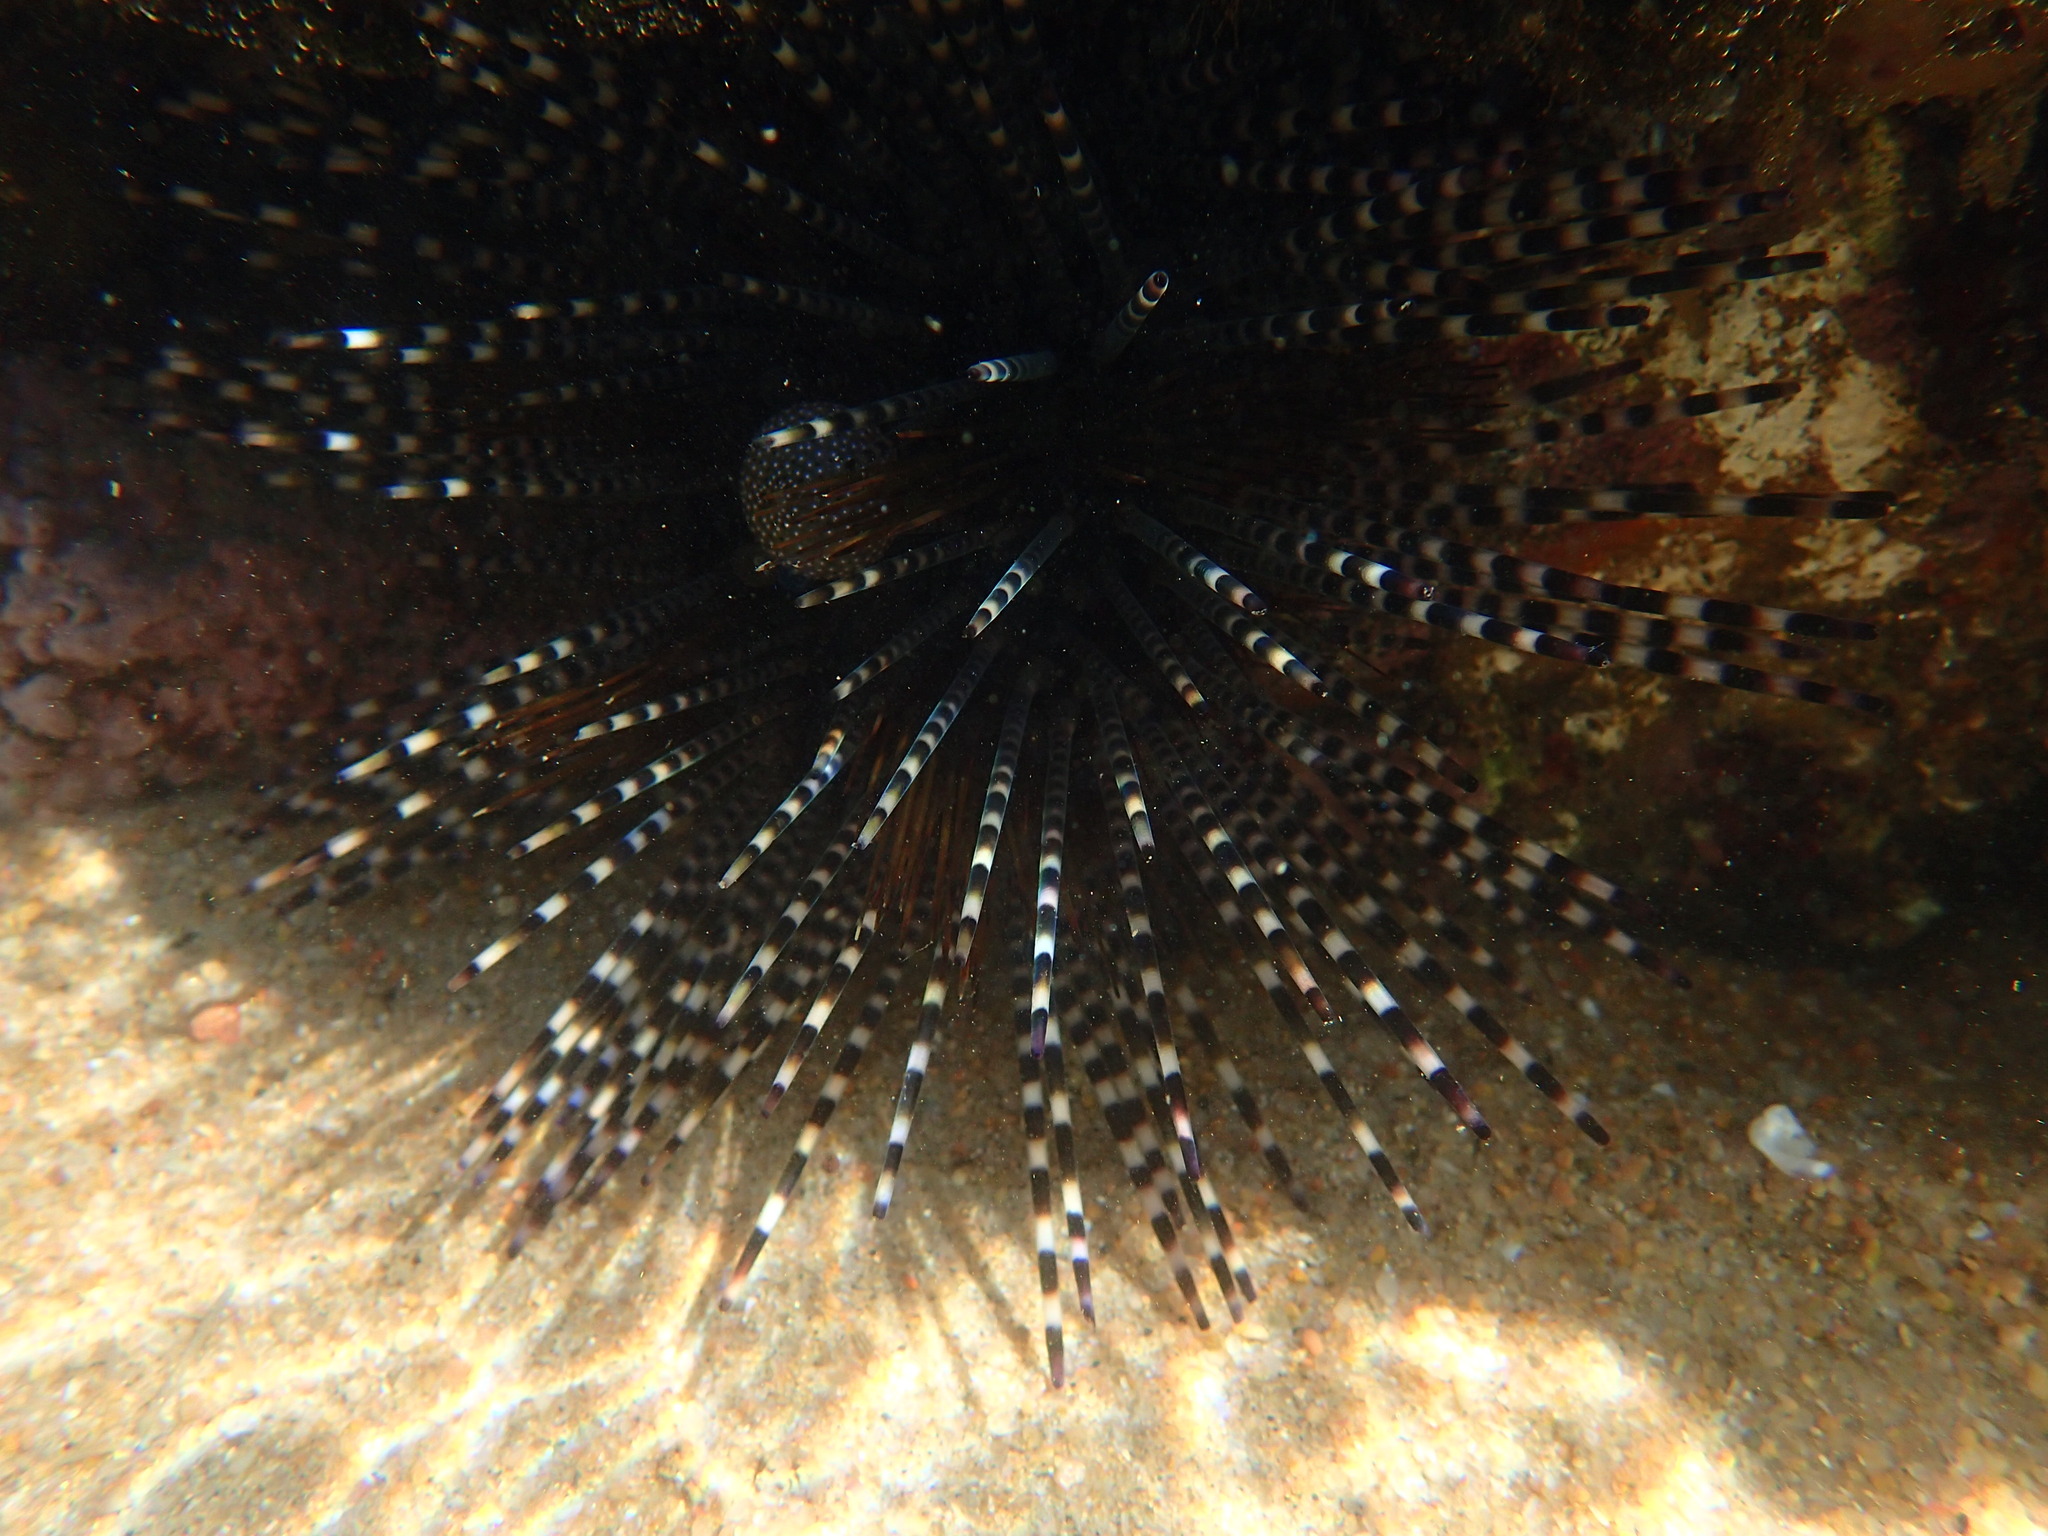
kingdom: Animalia
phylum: Echinodermata
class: Echinoidea
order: Diadematoida
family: Diadematidae
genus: Echinothrix
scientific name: Echinothrix calamaris
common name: Banded sea urchin
